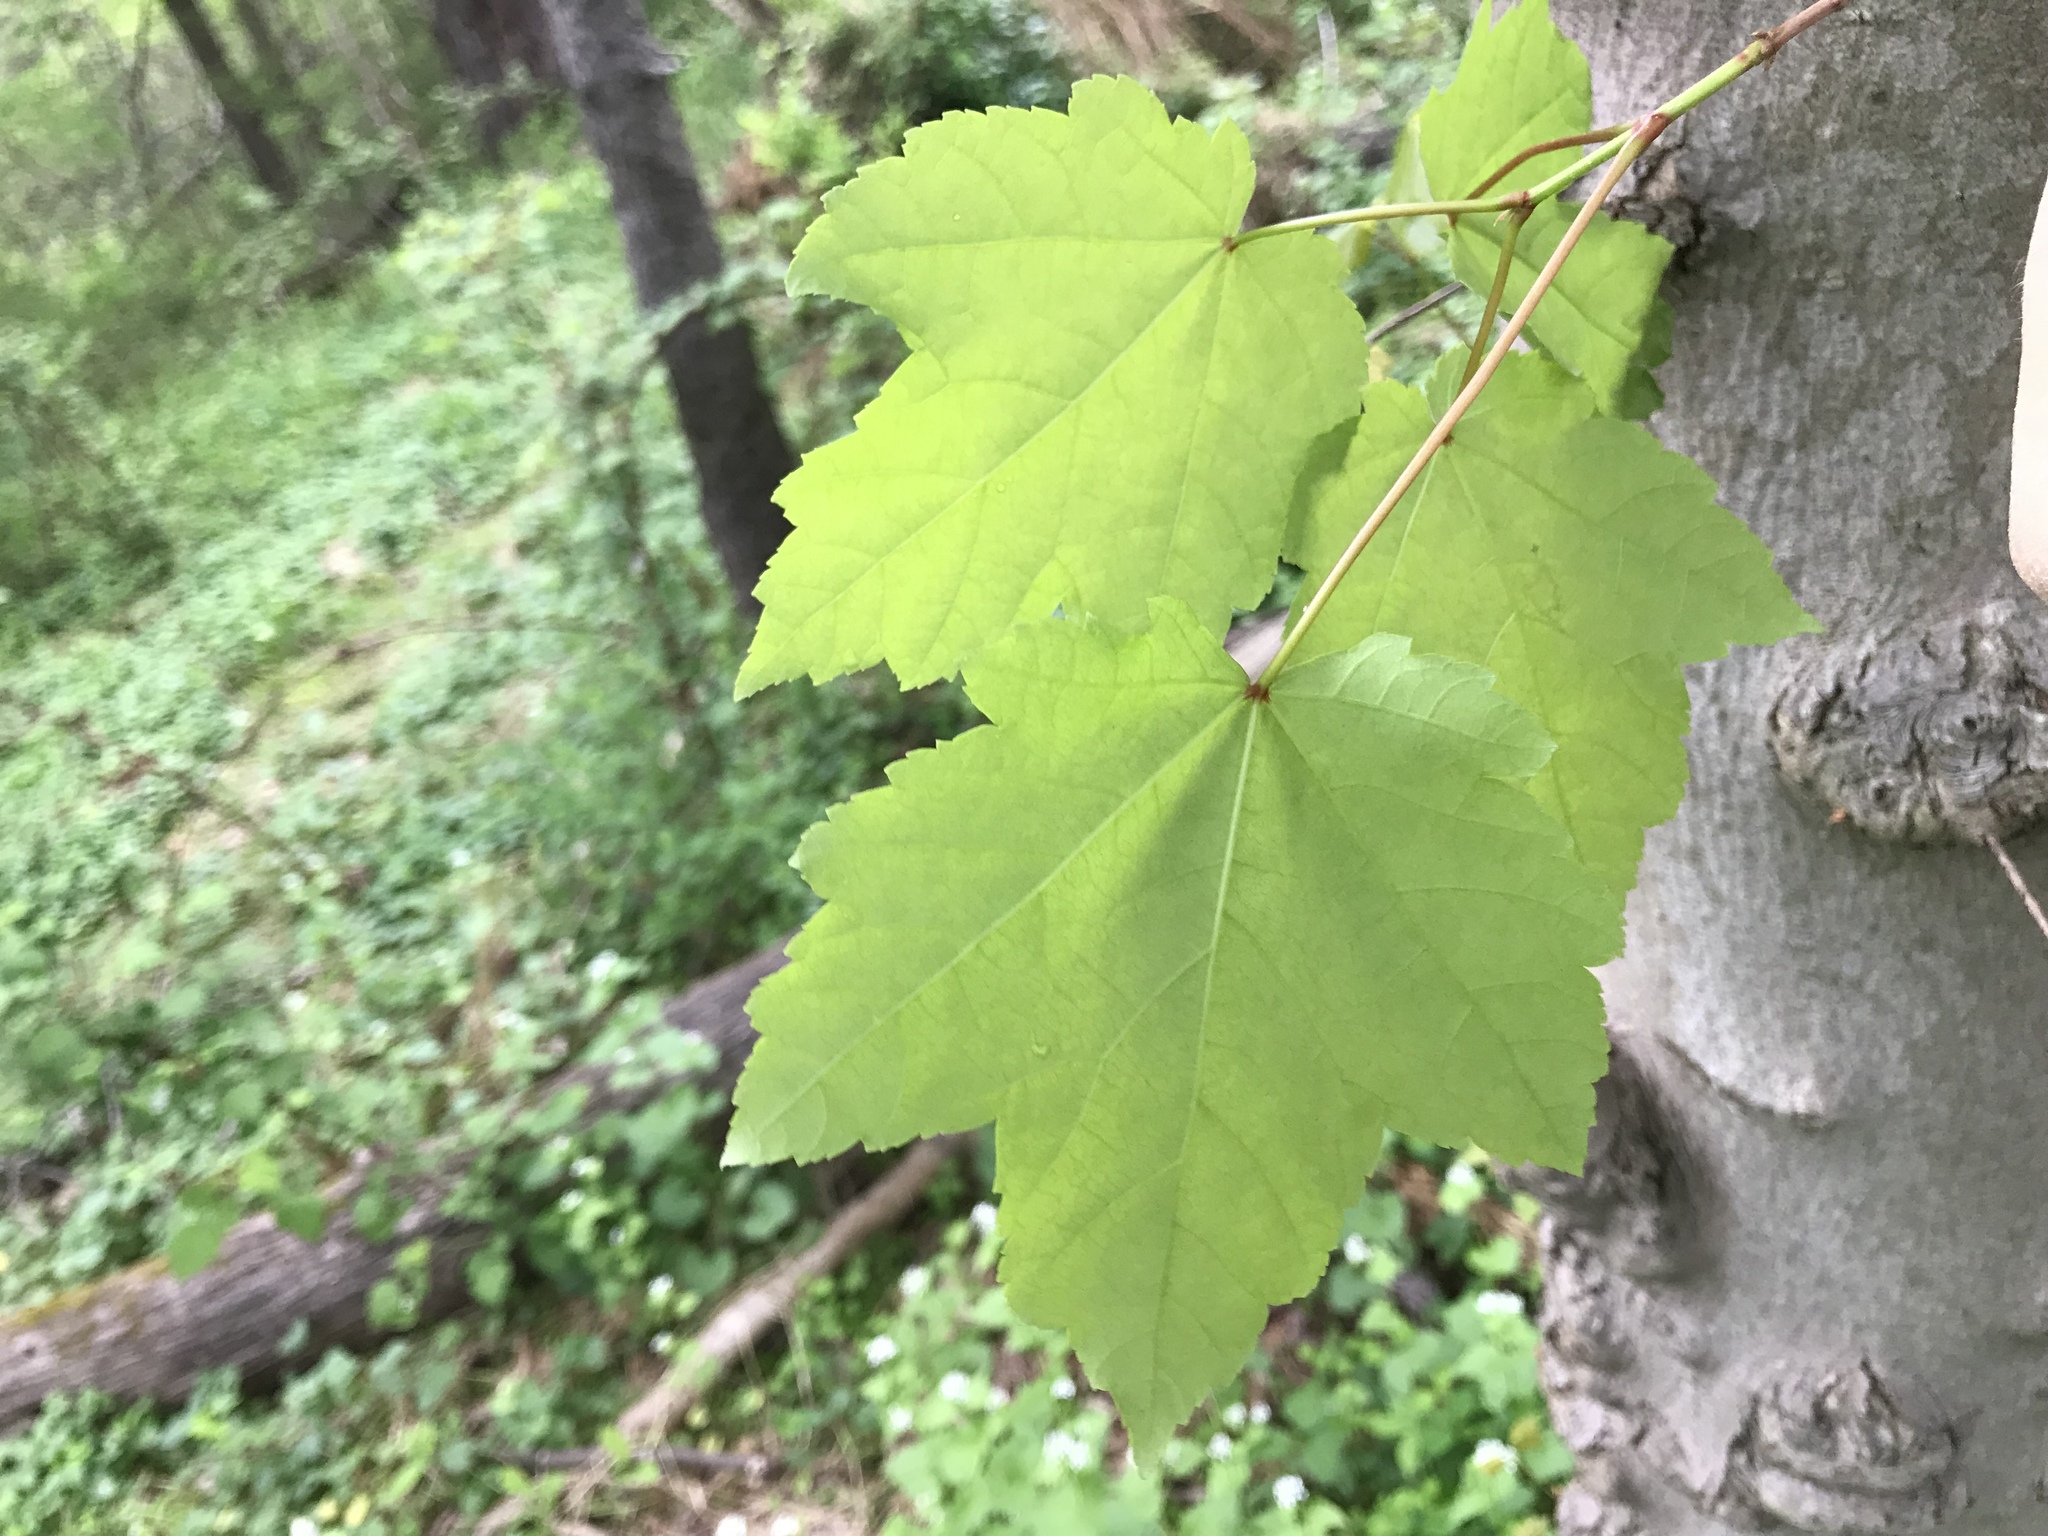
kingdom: Plantae
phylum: Tracheophyta
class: Magnoliopsida
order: Sapindales
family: Sapindaceae
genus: Acer
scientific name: Acer rubrum
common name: Red maple
